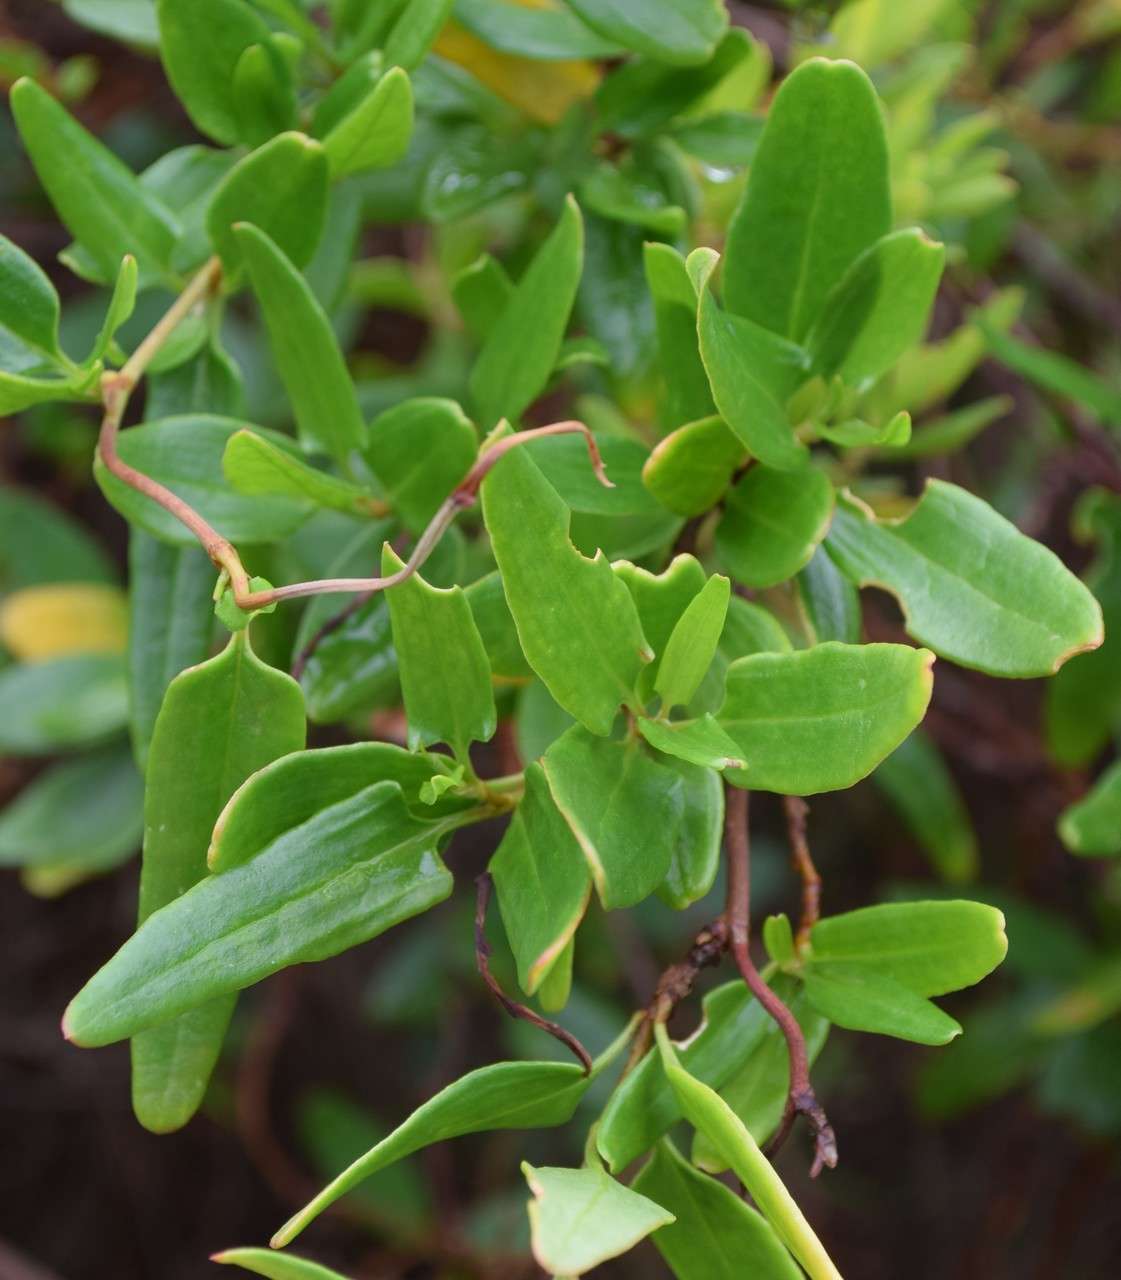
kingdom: Plantae
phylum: Tracheophyta
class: Magnoliopsida
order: Caryophyllales
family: Polygonaceae
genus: Muehlenbeckia
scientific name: Muehlenbeckia gunnii
